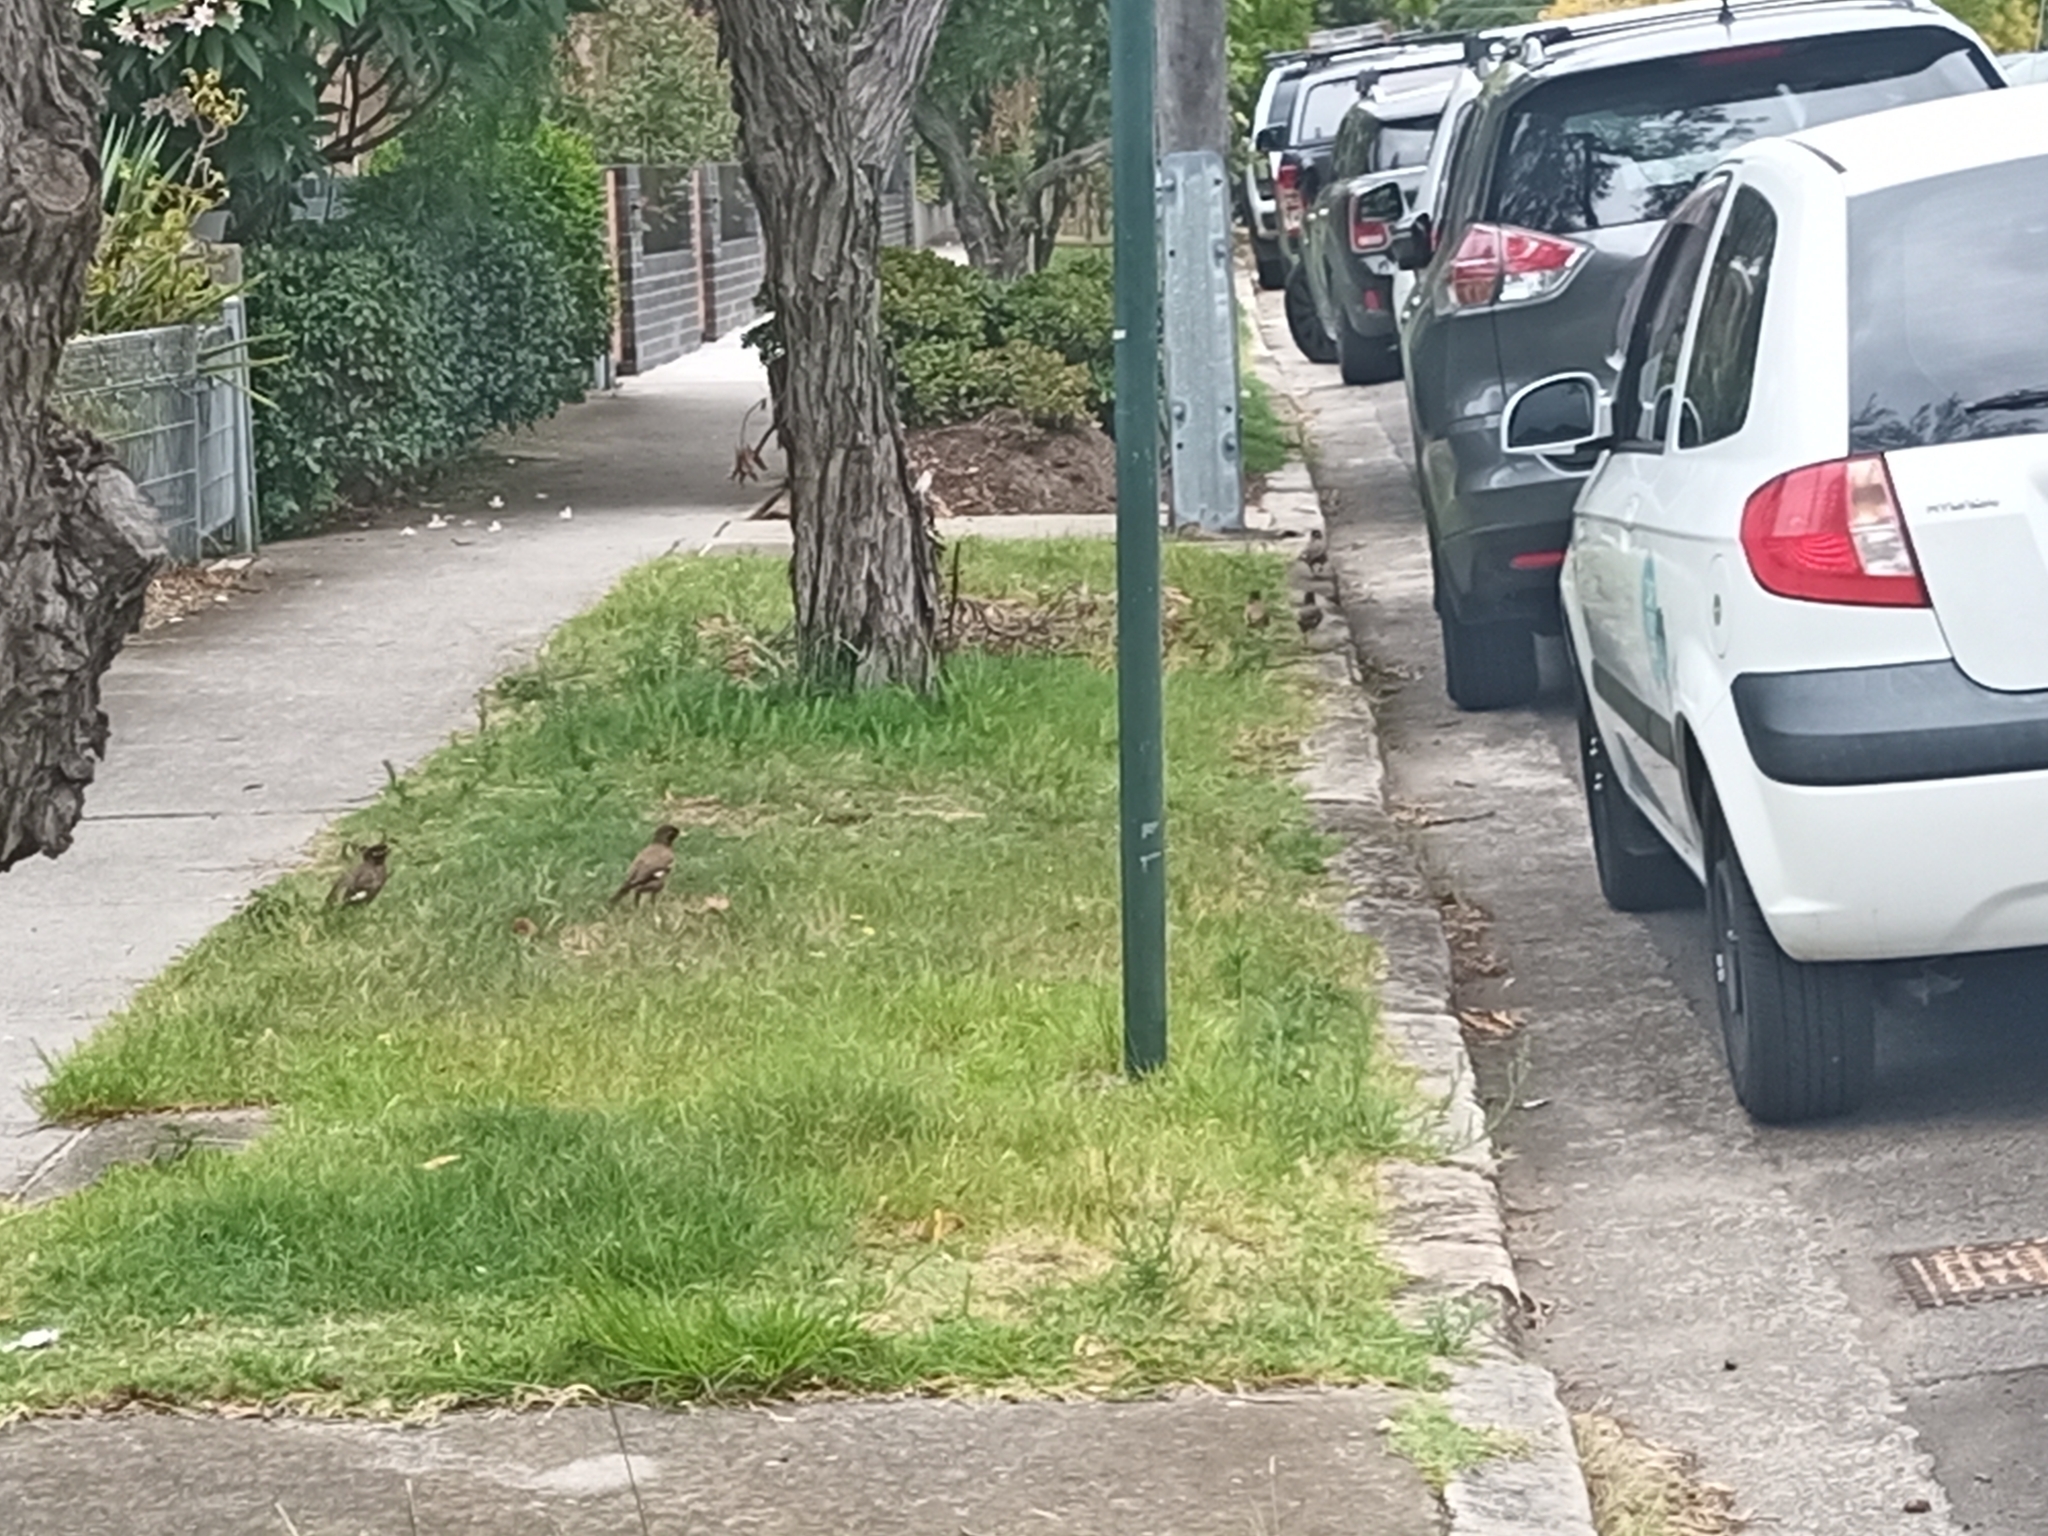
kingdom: Animalia
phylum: Chordata
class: Aves
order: Passeriformes
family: Sturnidae
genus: Acridotheres
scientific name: Acridotheres tristis
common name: Common myna
